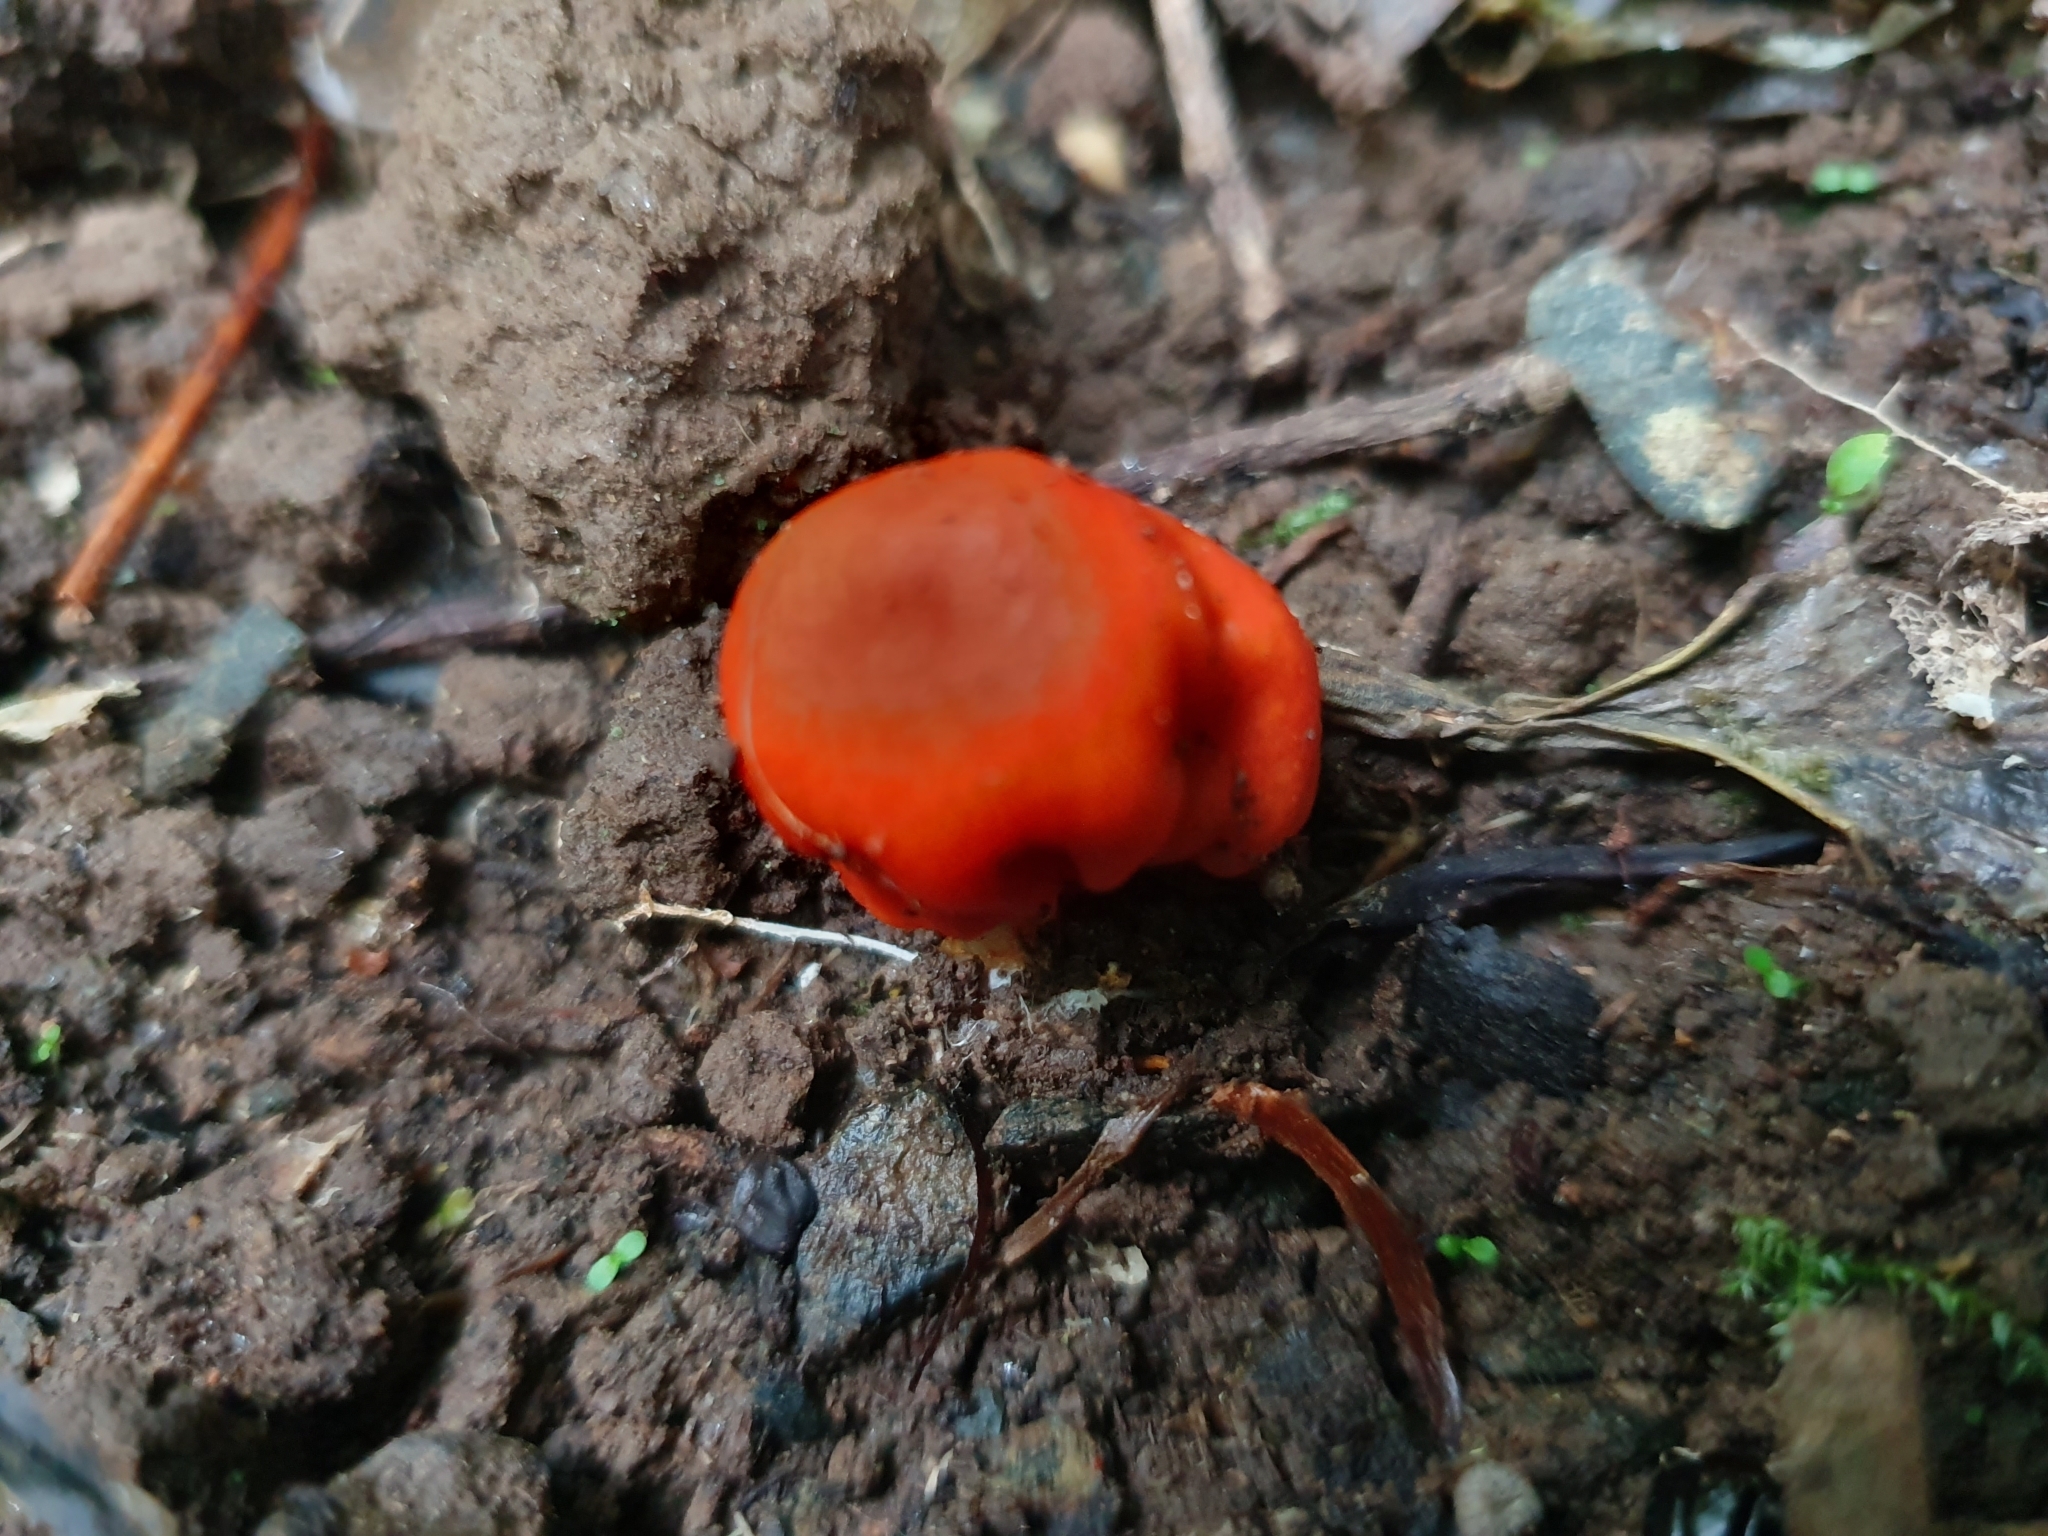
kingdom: Fungi
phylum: Basidiomycota
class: Agaricomycetes
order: Agaricales
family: Strophariaceae
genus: Leratiomyces
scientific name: Leratiomyces erythrocephalus
